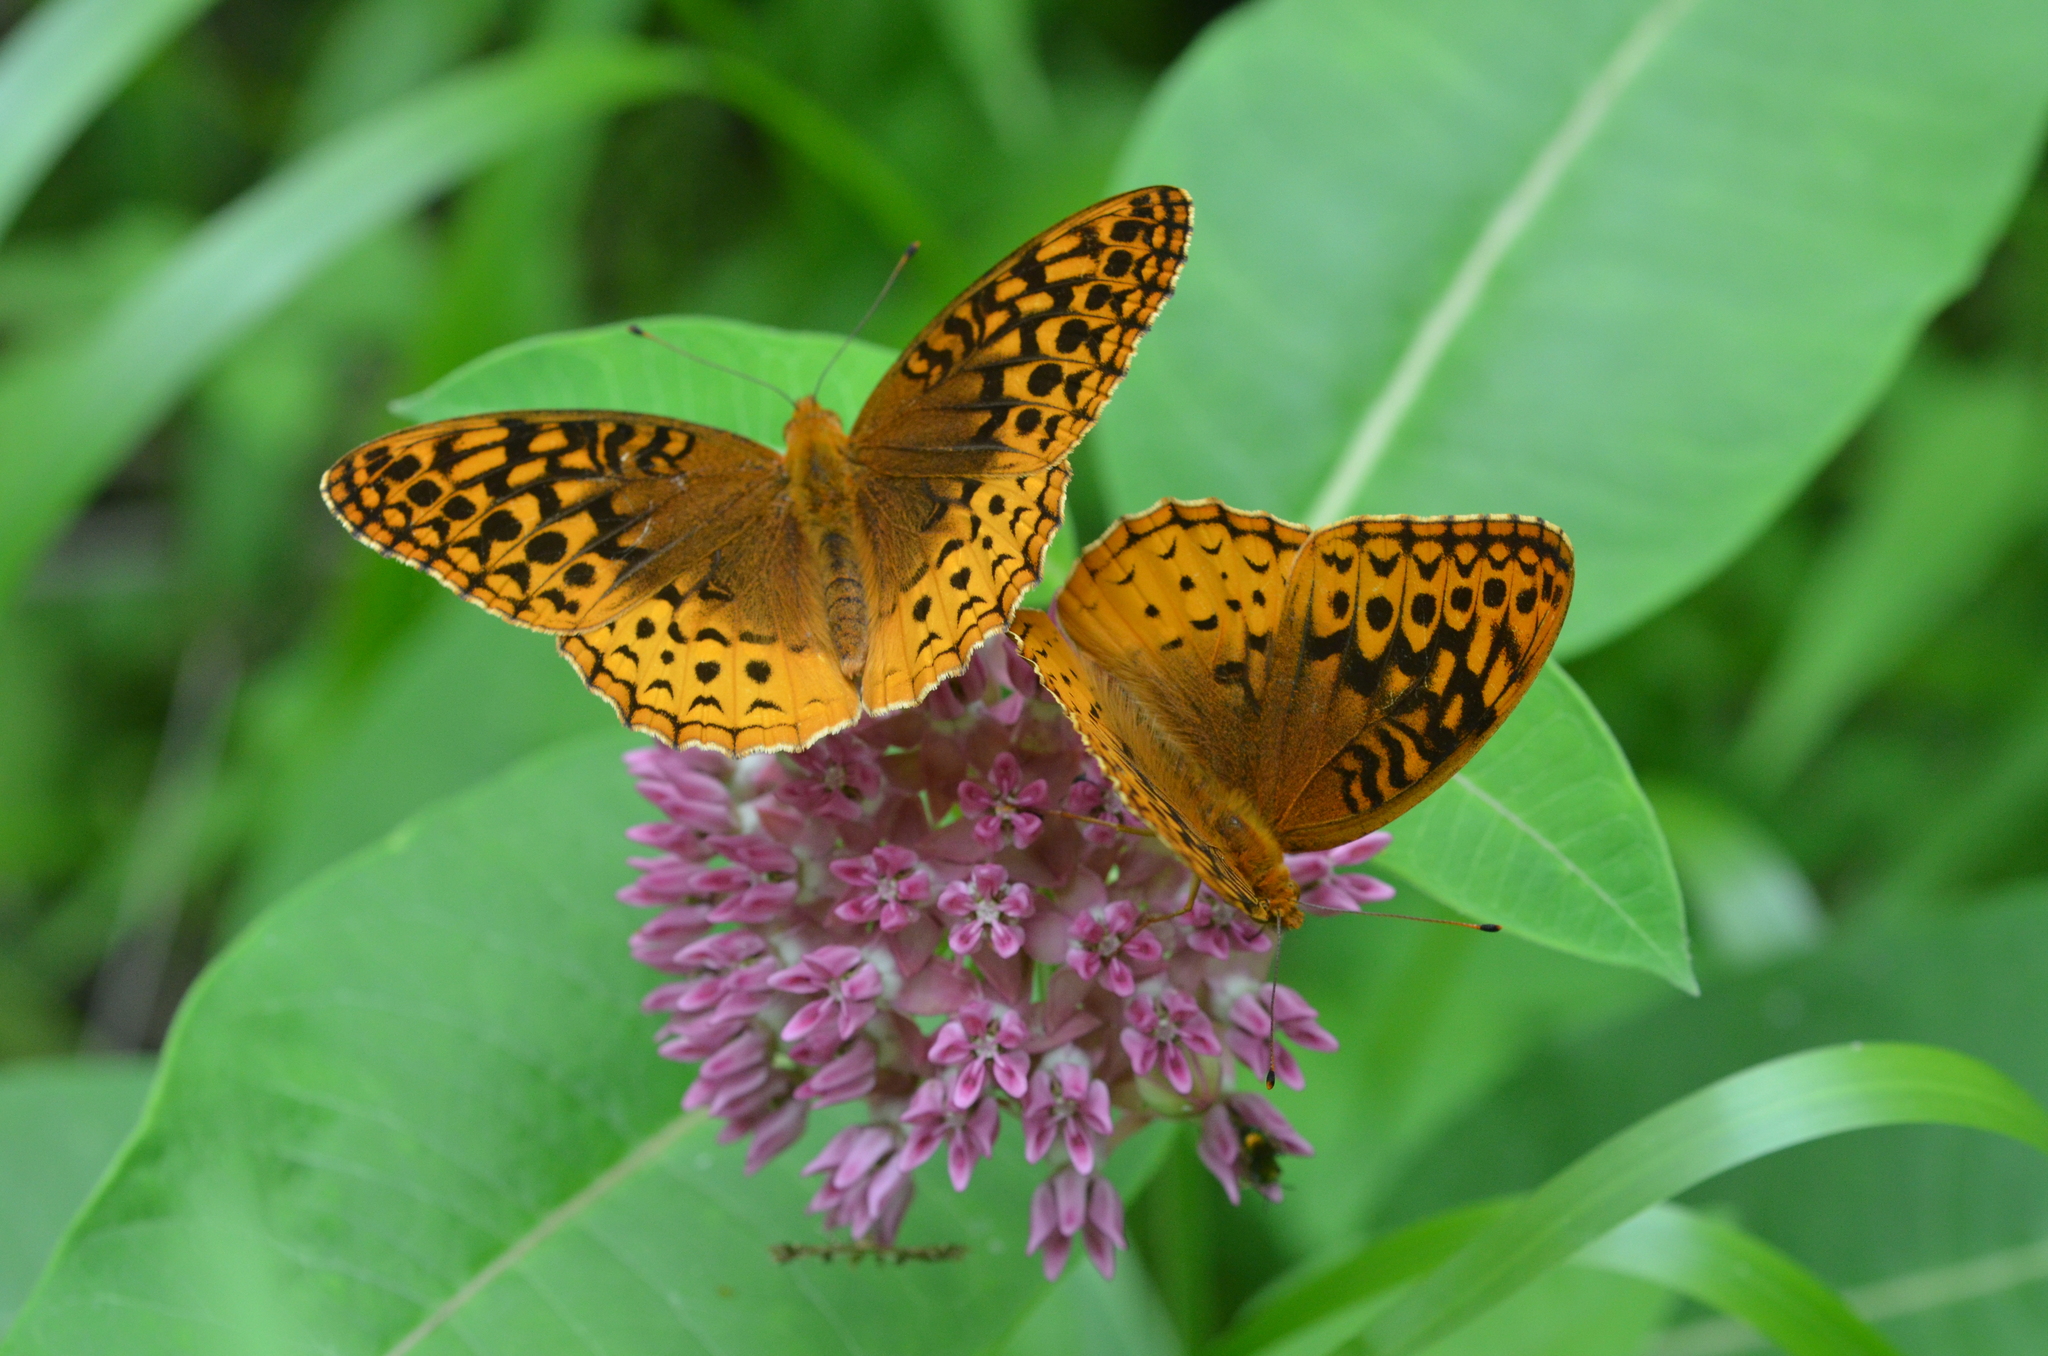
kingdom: Animalia
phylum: Arthropoda
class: Insecta
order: Lepidoptera
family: Nymphalidae
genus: Speyeria
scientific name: Speyeria cybele
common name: Great spangled fritillary
